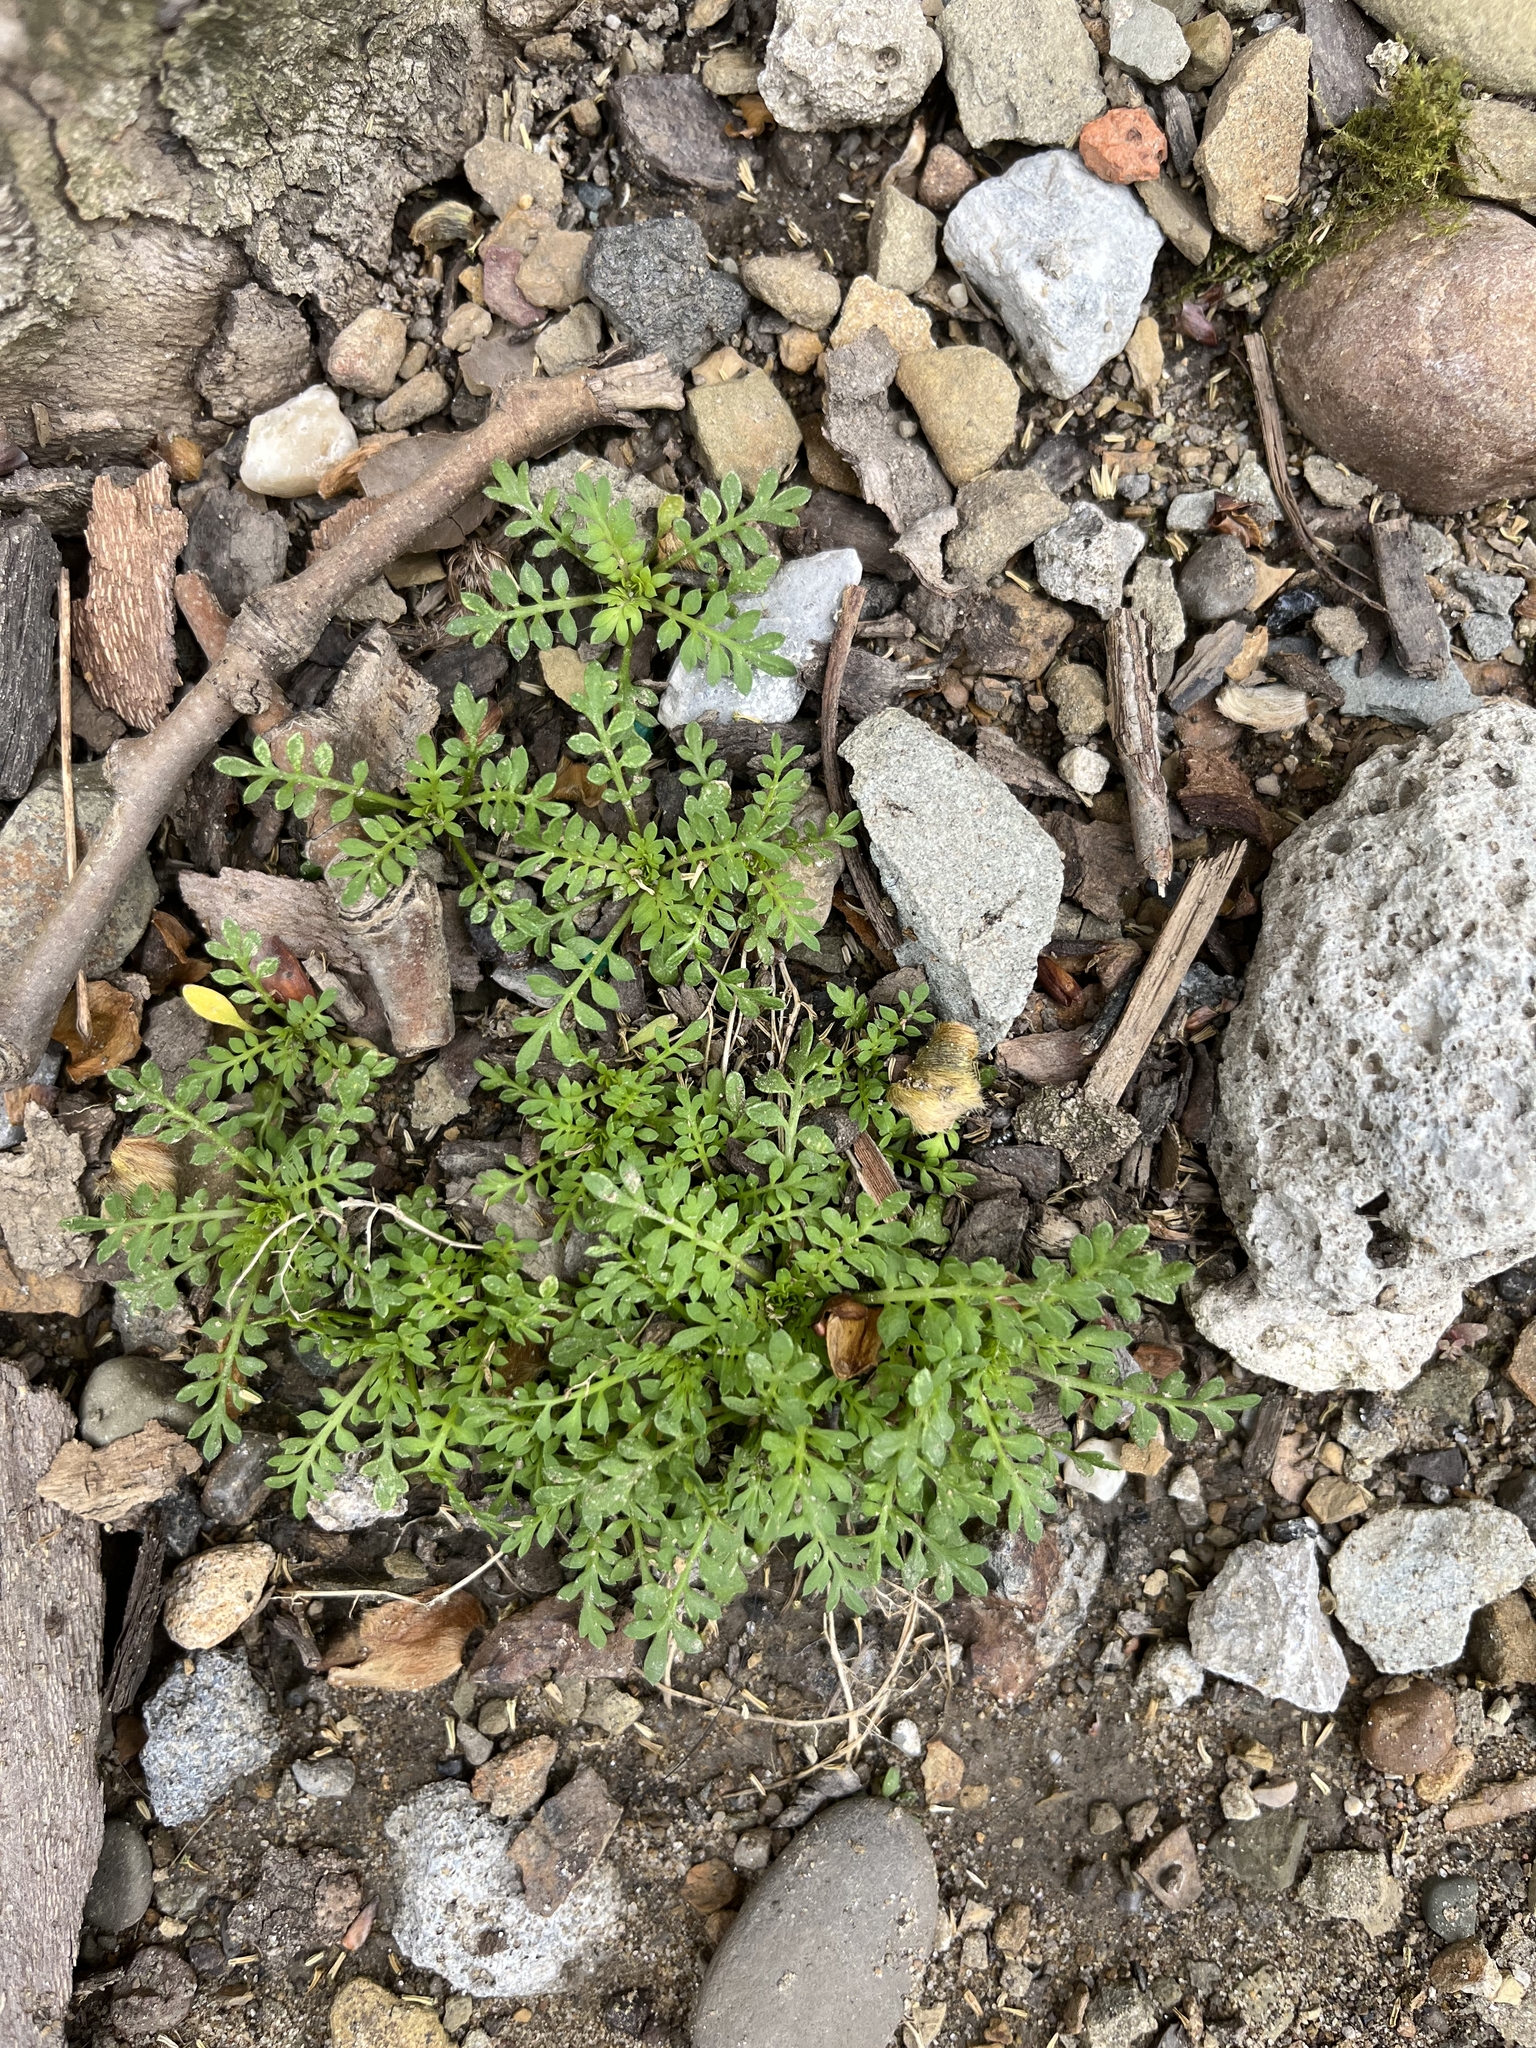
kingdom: Plantae
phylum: Tracheophyta
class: Magnoliopsida
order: Brassicales
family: Brassicaceae
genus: Lepidium
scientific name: Lepidium didymum
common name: Lesser swinecress
